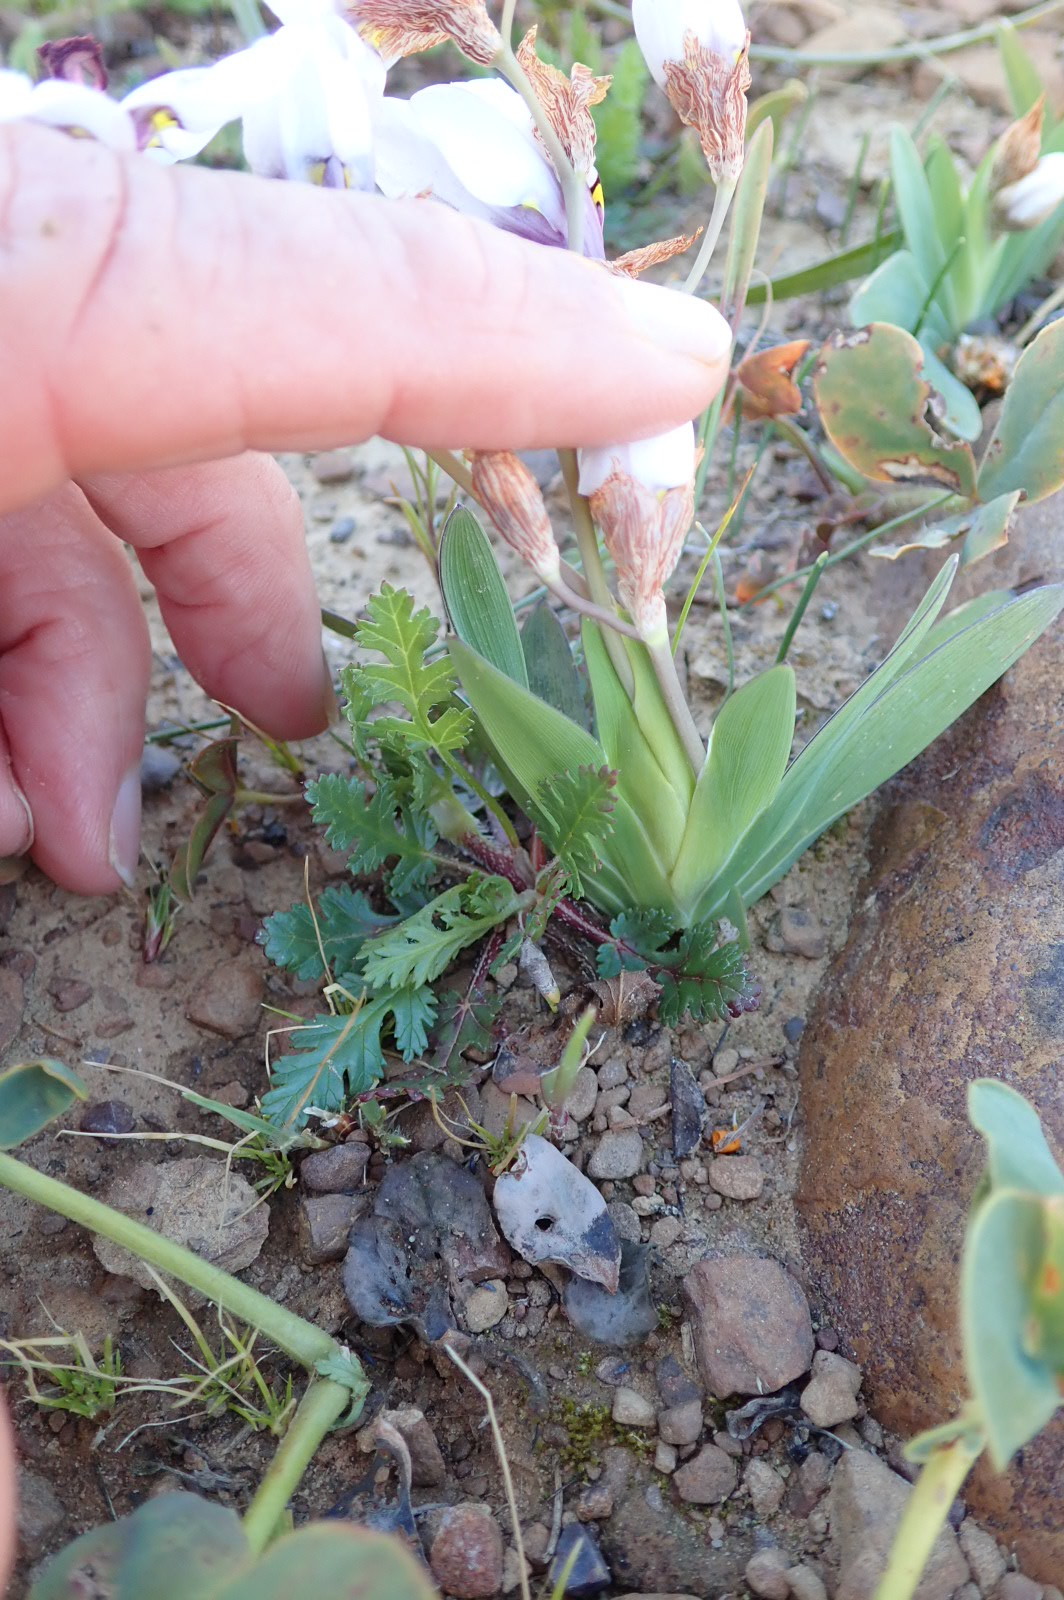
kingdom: Plantae
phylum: Tracheophyta
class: Liliopsida
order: Asparagales
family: Iridaceae
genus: Sparaxis
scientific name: Sparaxis elegans
